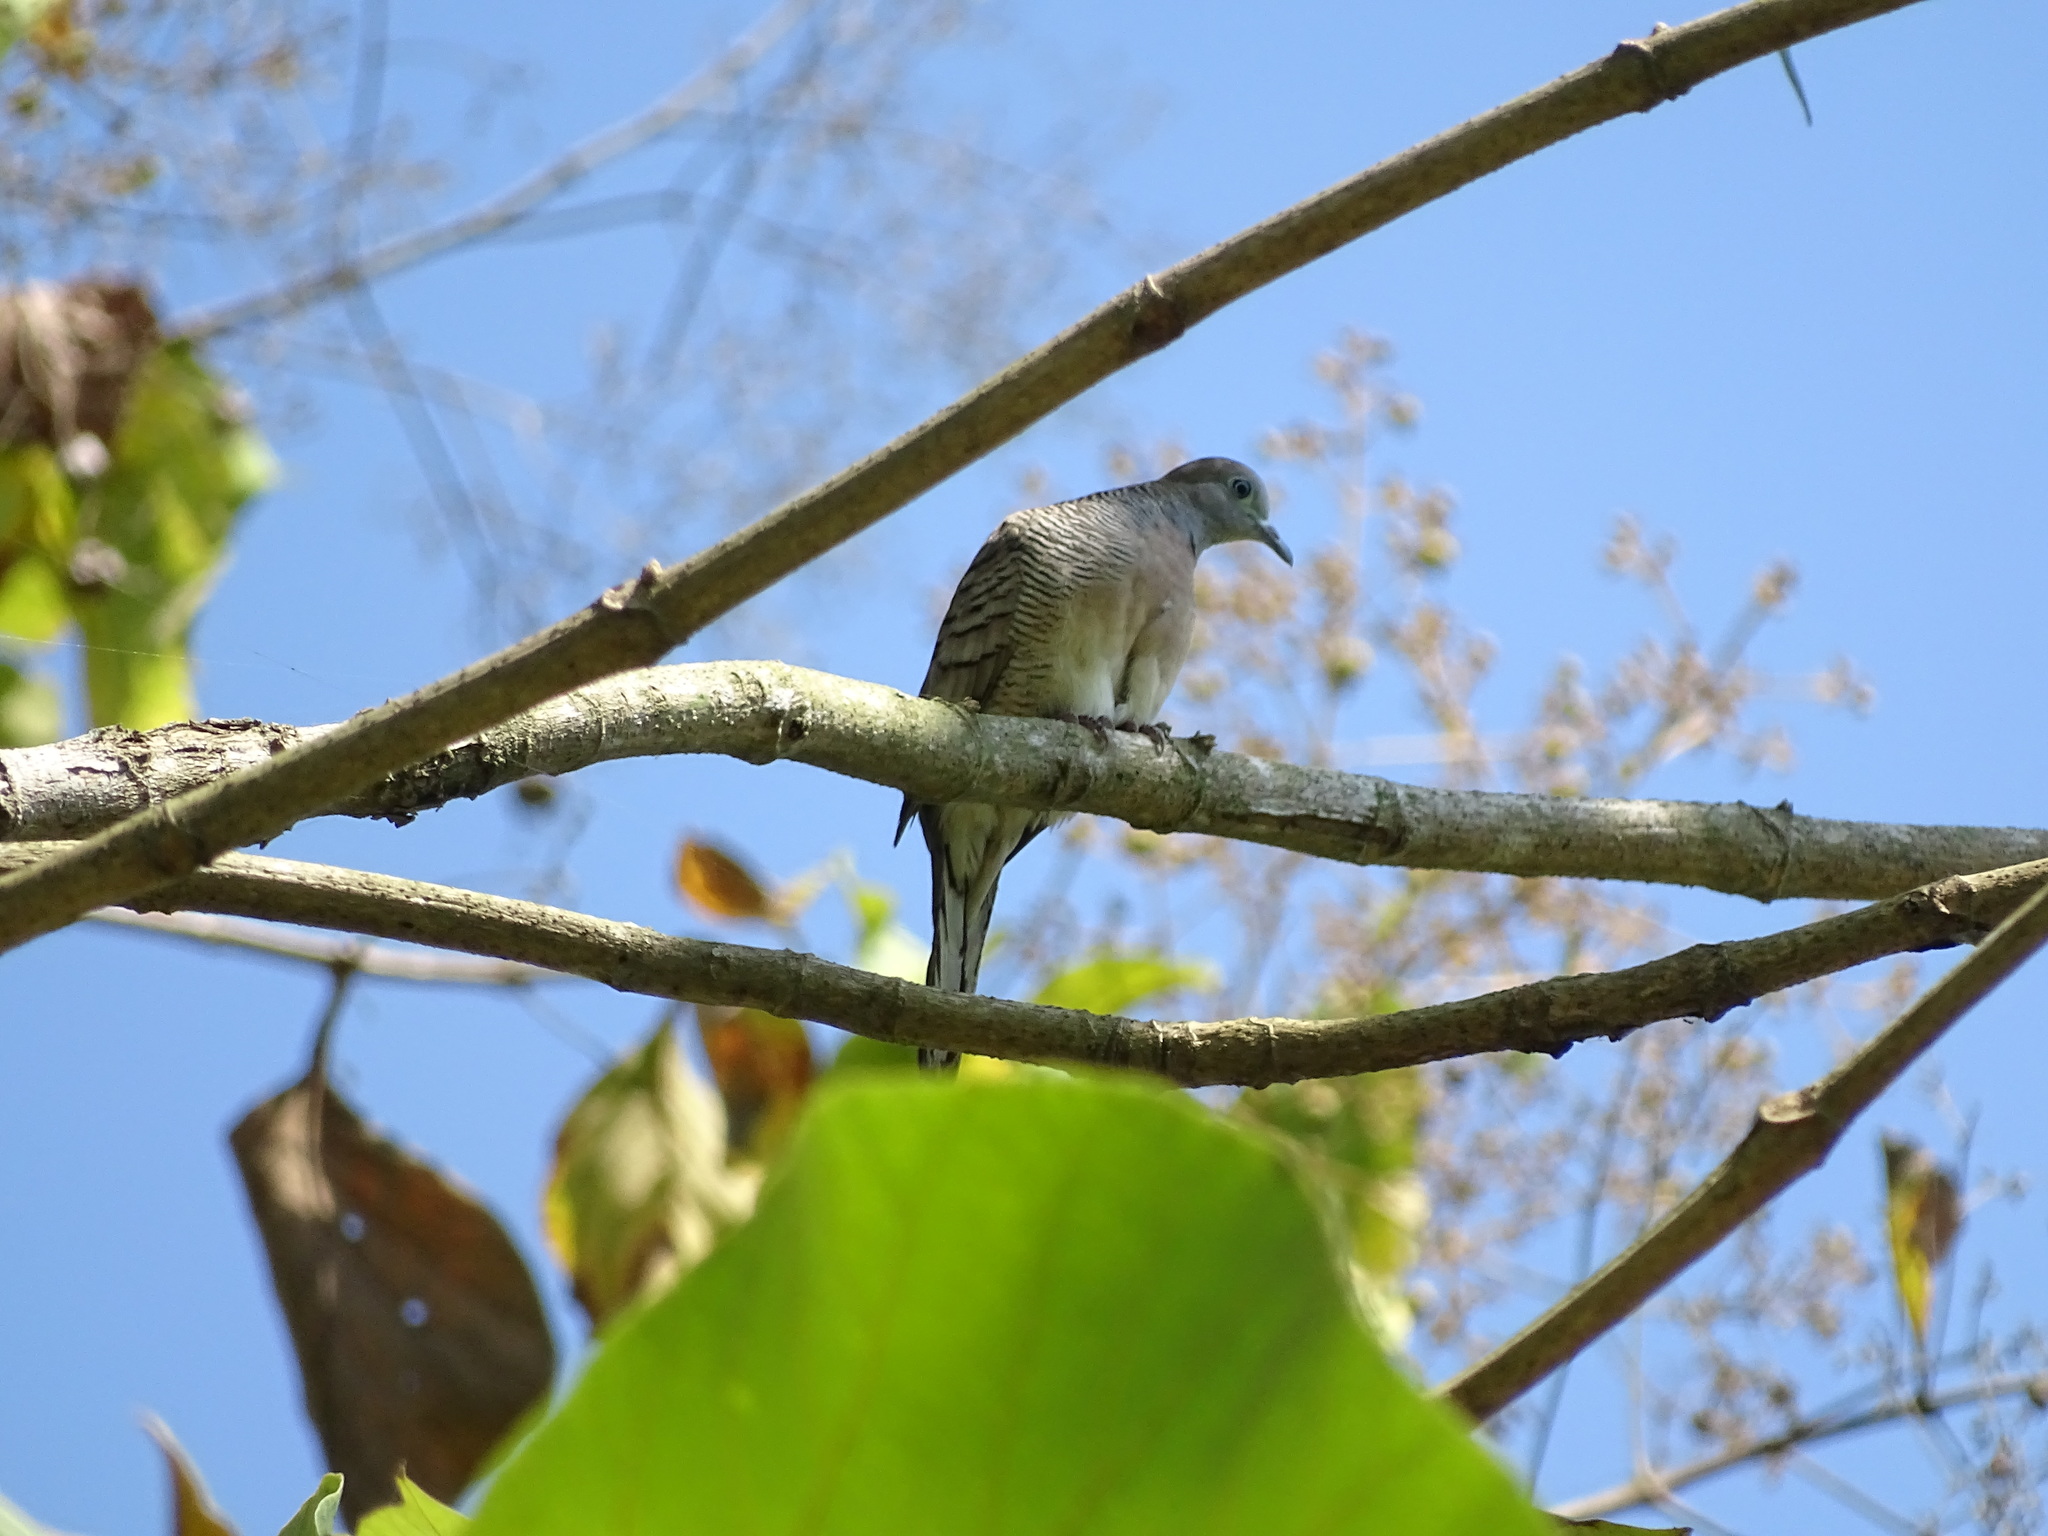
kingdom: Animalia
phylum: Chordata
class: Aves
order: Columbiformes
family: Columbidae
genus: Geopelia
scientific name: Geopelia striata
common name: Zebra dove
